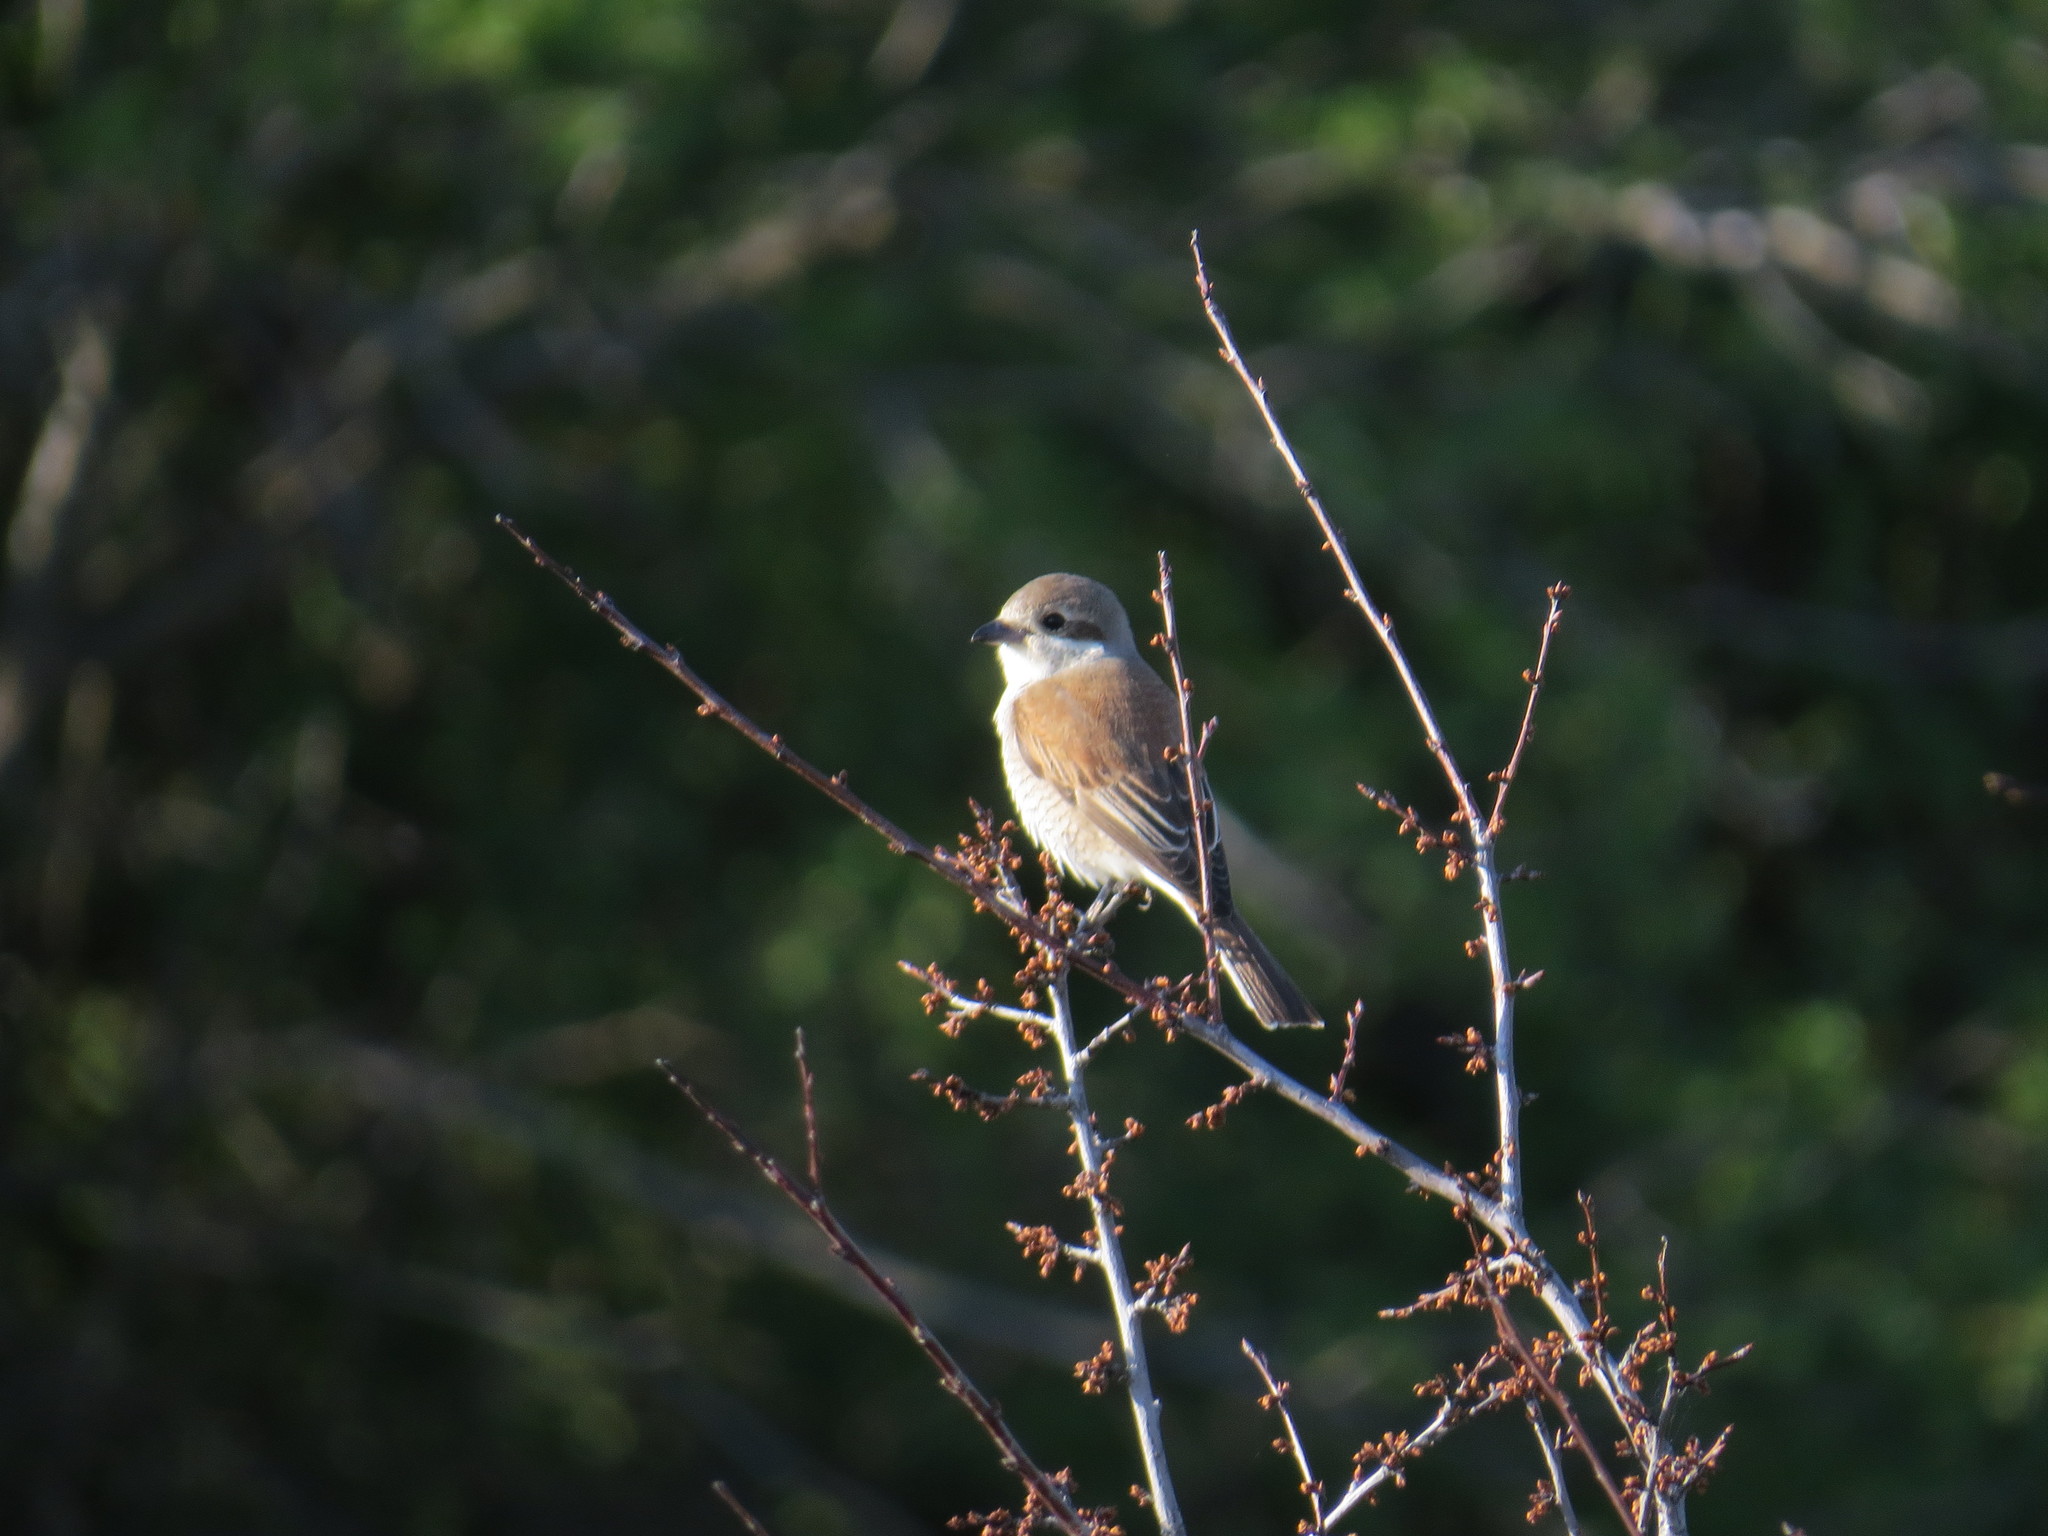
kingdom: Animalia
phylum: Chordata
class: Aves
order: Passeriformes
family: Laniidae
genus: Lanius
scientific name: Lanius collurio
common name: Red-backed shrike
